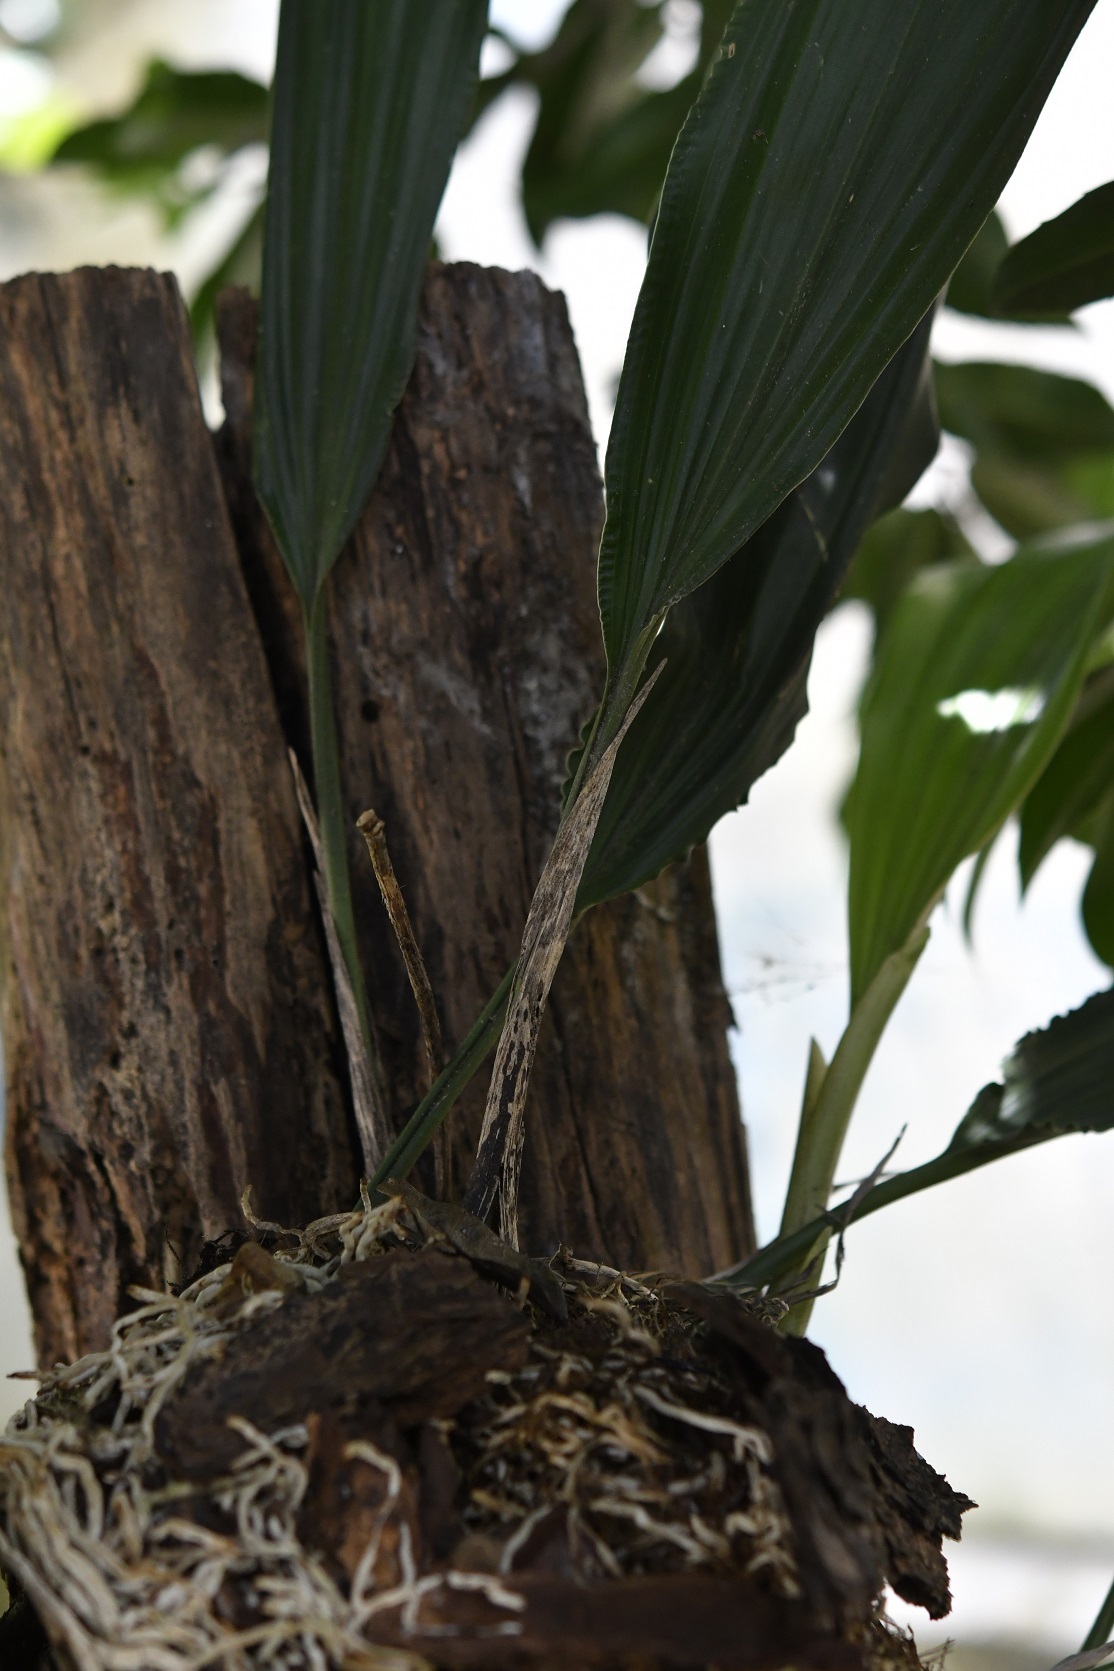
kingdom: Plantae
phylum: Tracheophyta
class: Liliopsida
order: Asparagales
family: Orchidaceae
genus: Stanhopea
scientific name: Stanhopea graveolens
